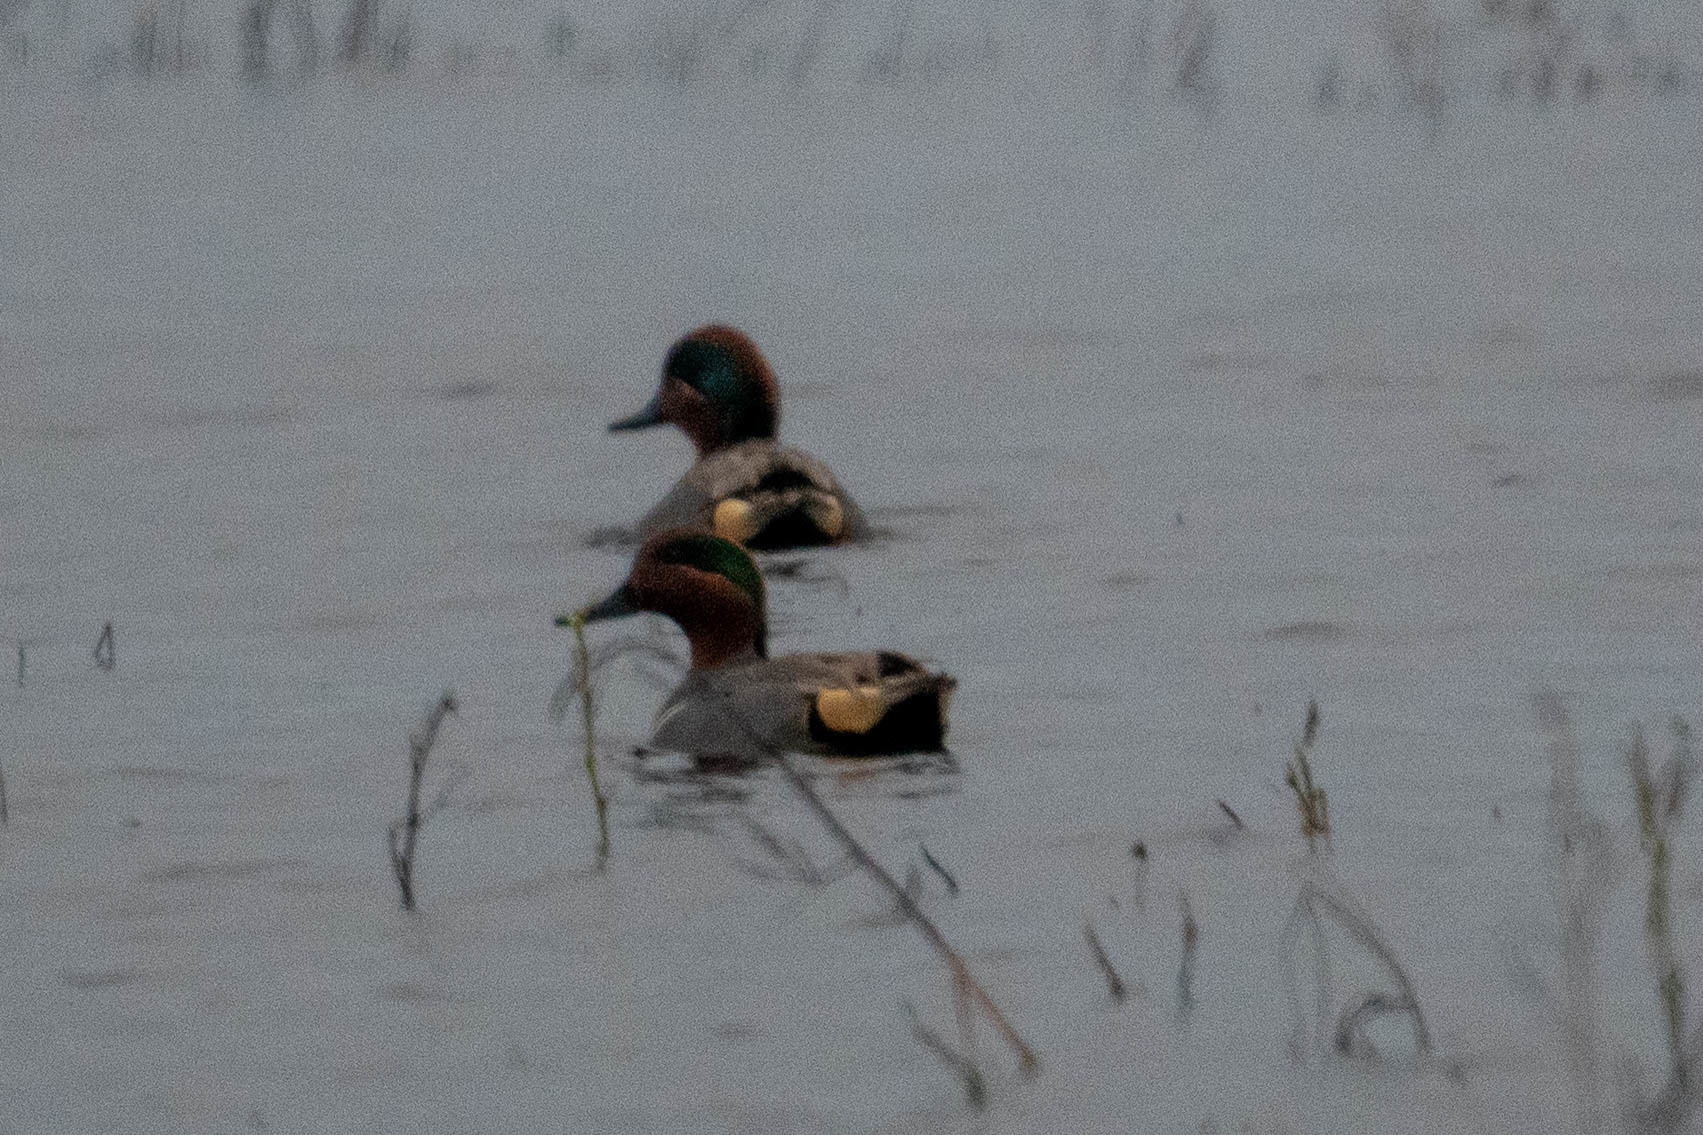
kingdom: Animalia
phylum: Chordata
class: Aves
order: Anseriformes
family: Anatidae
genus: Anas
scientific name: Anas crecca
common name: Eurasian teal
